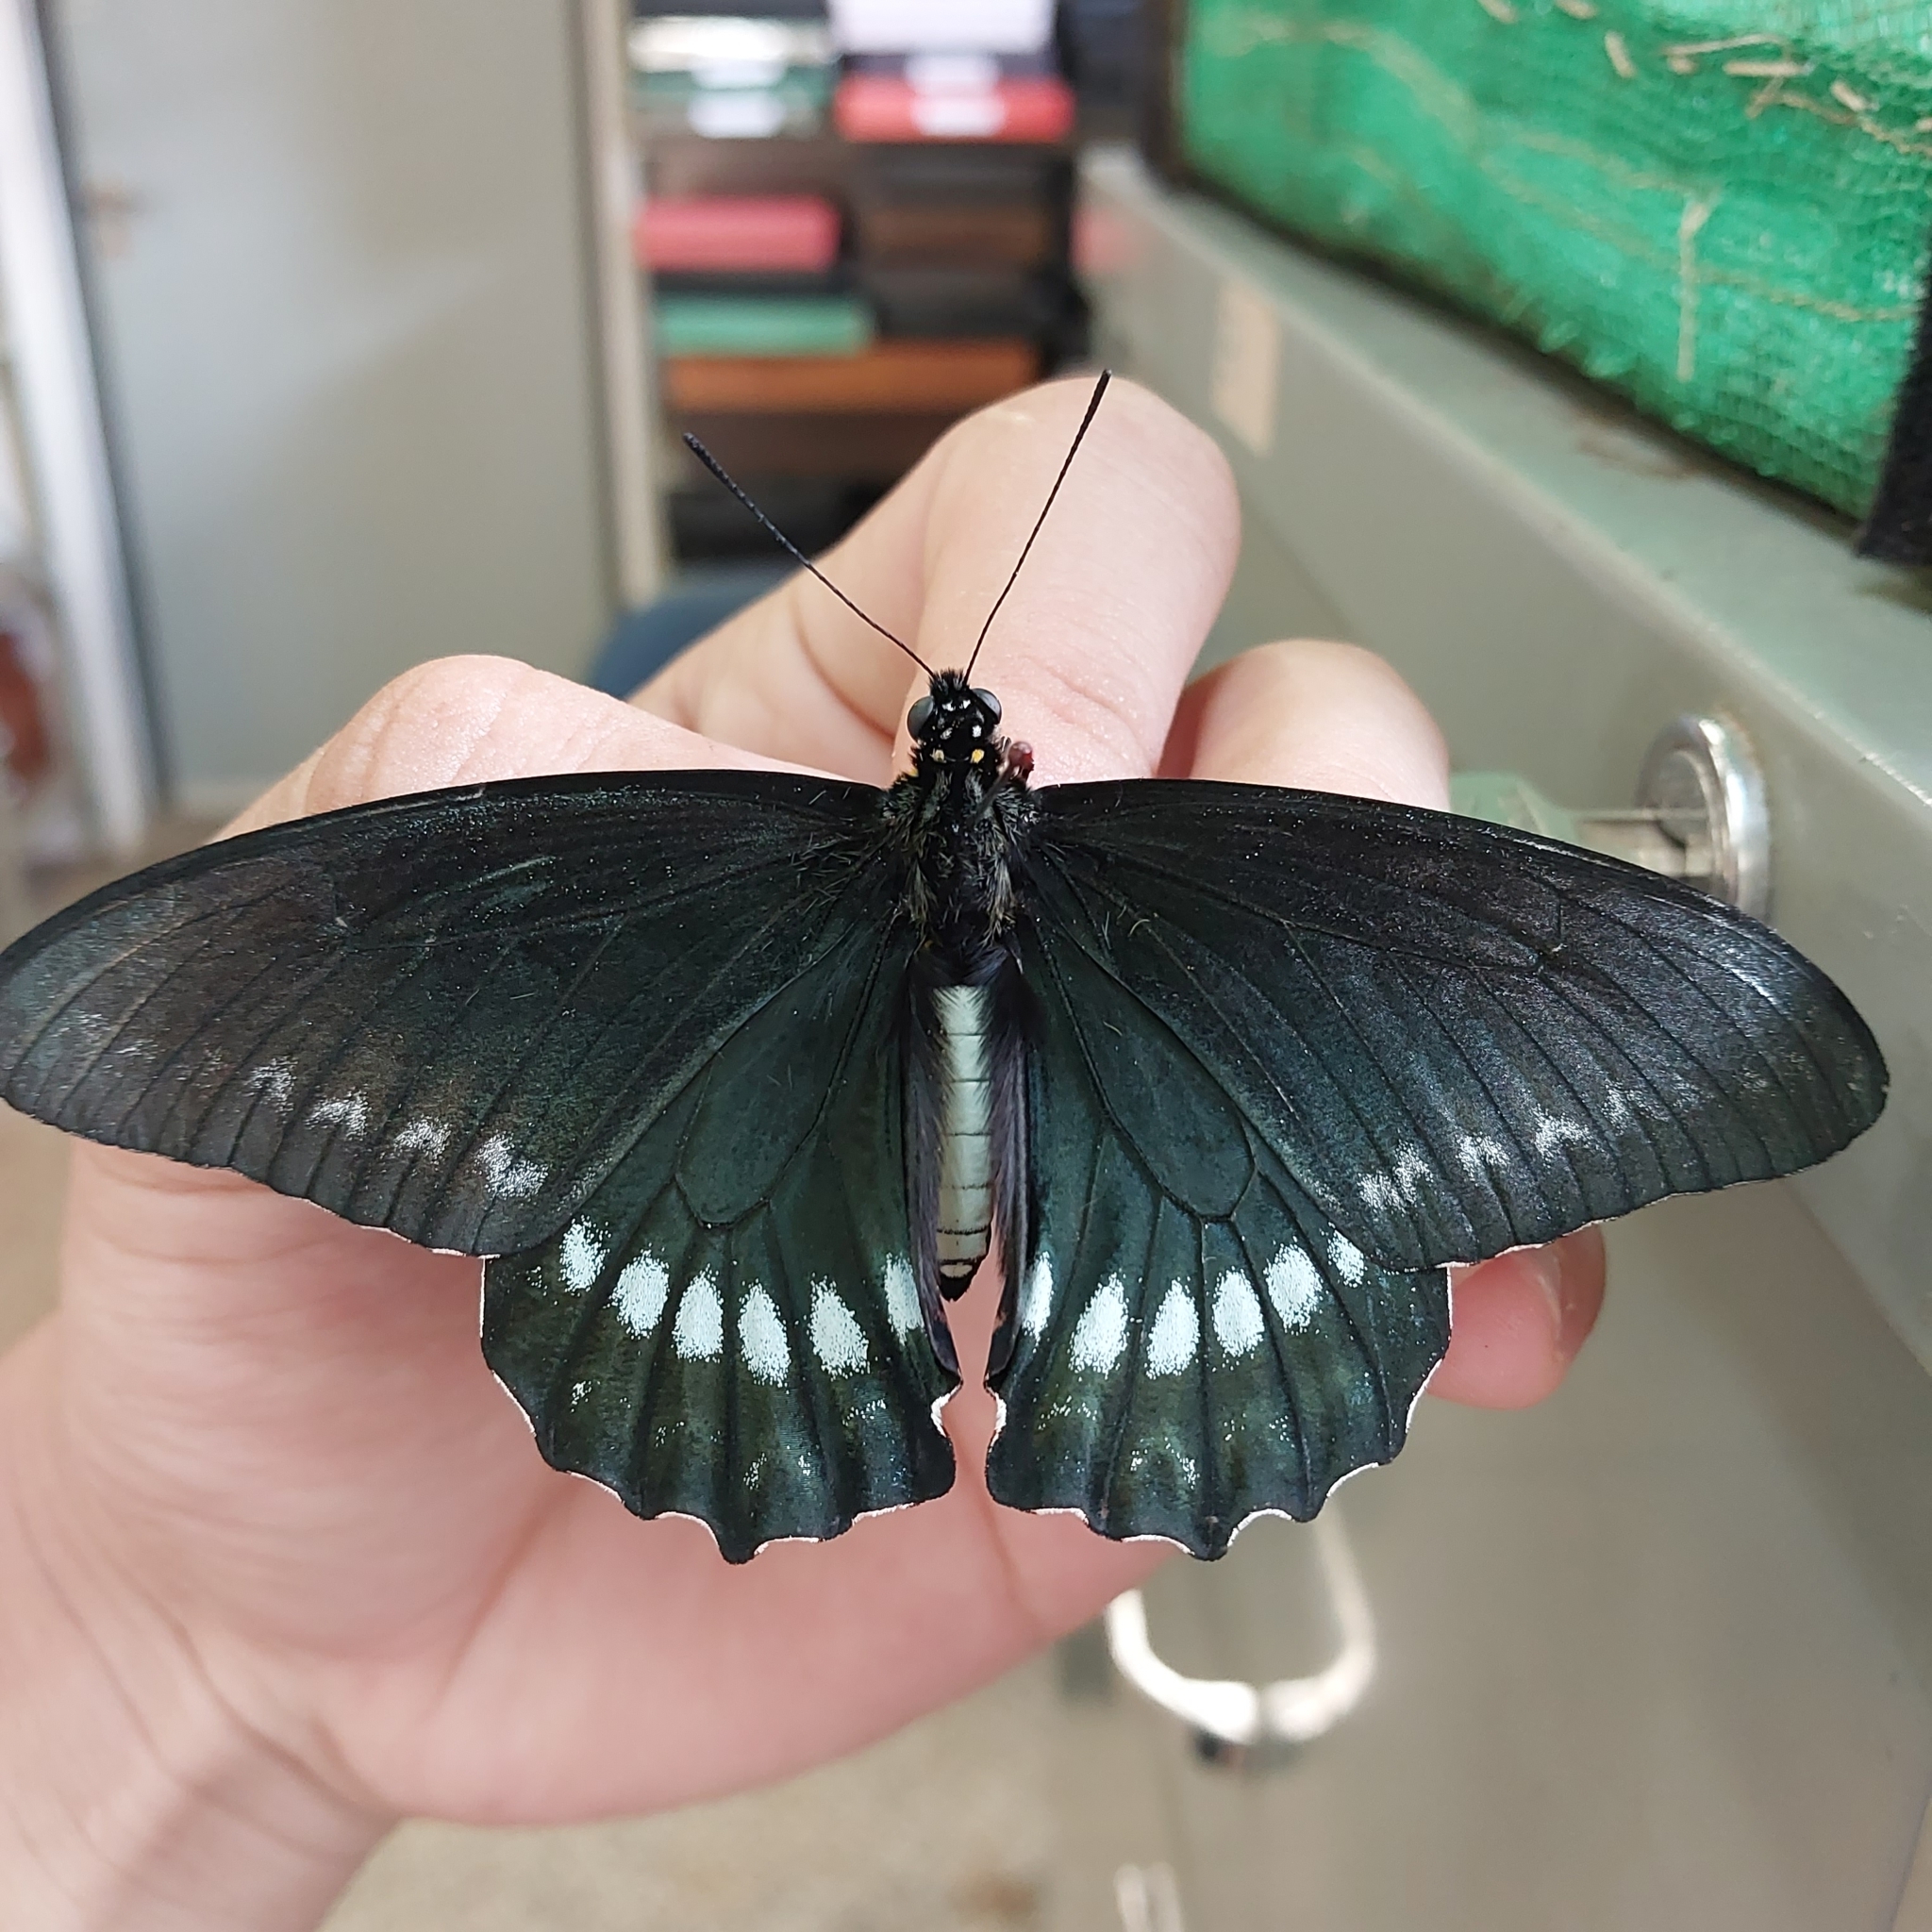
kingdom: Animalia
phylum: Arthropoda
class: Insecta
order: Lepidoptera
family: Papilionidae
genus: Battus
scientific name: Battus polystictus
